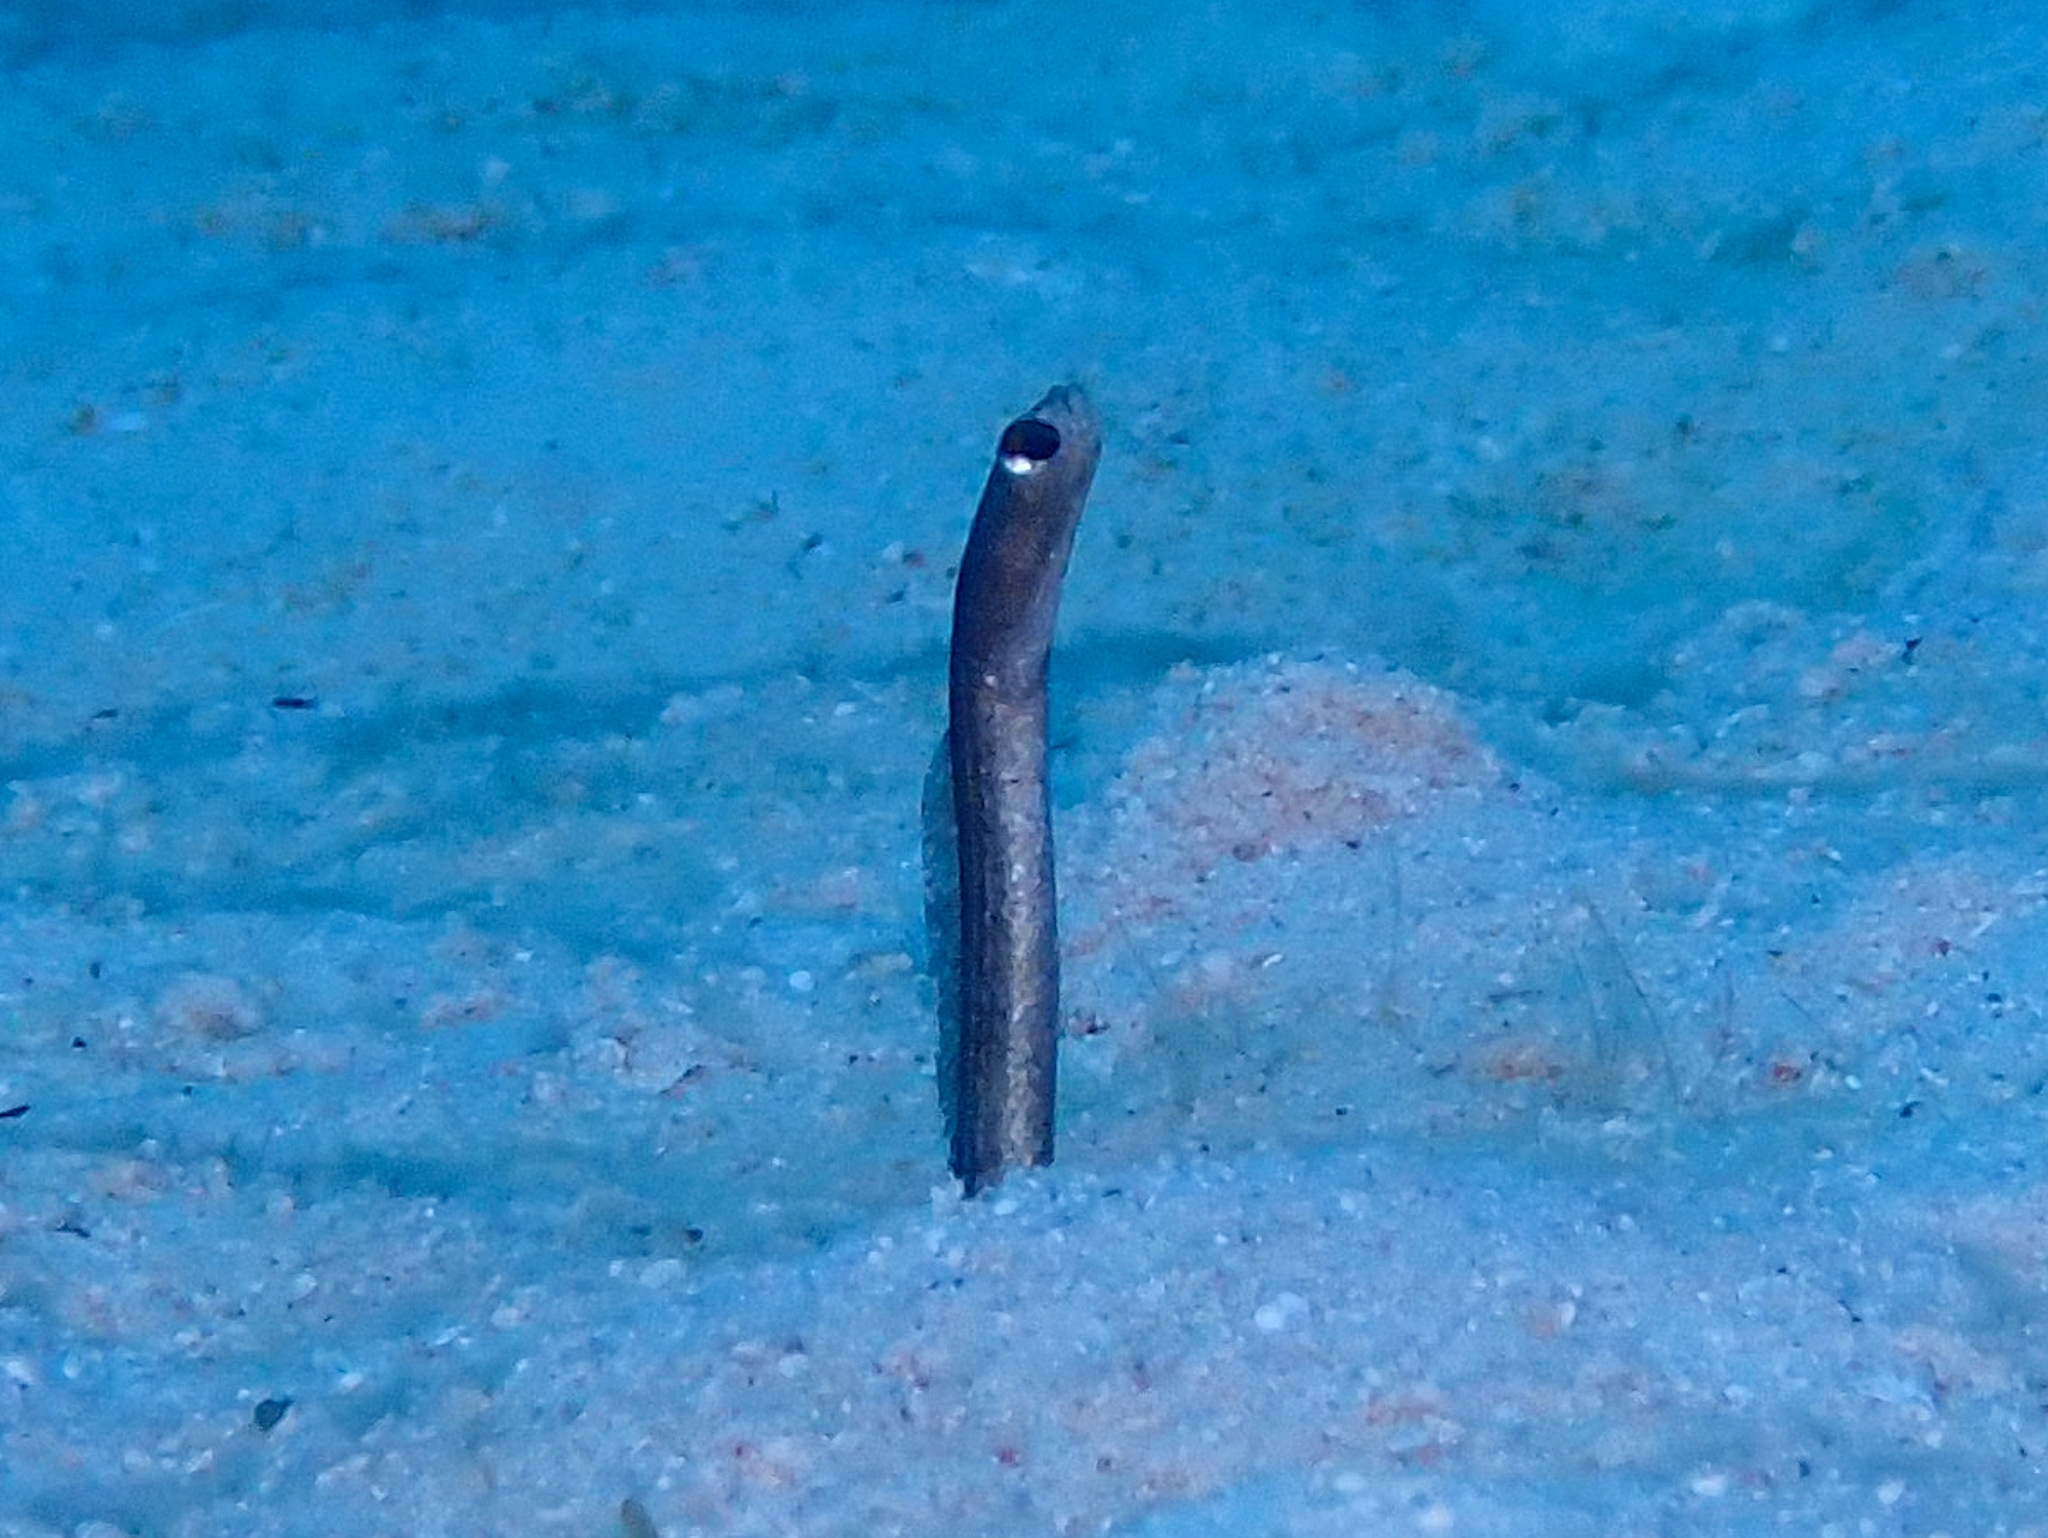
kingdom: Animalia
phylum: Chordata
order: Anguilliformes
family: Congridae
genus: Heteroconger
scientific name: Heteroconger longissimus
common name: Garden eel
